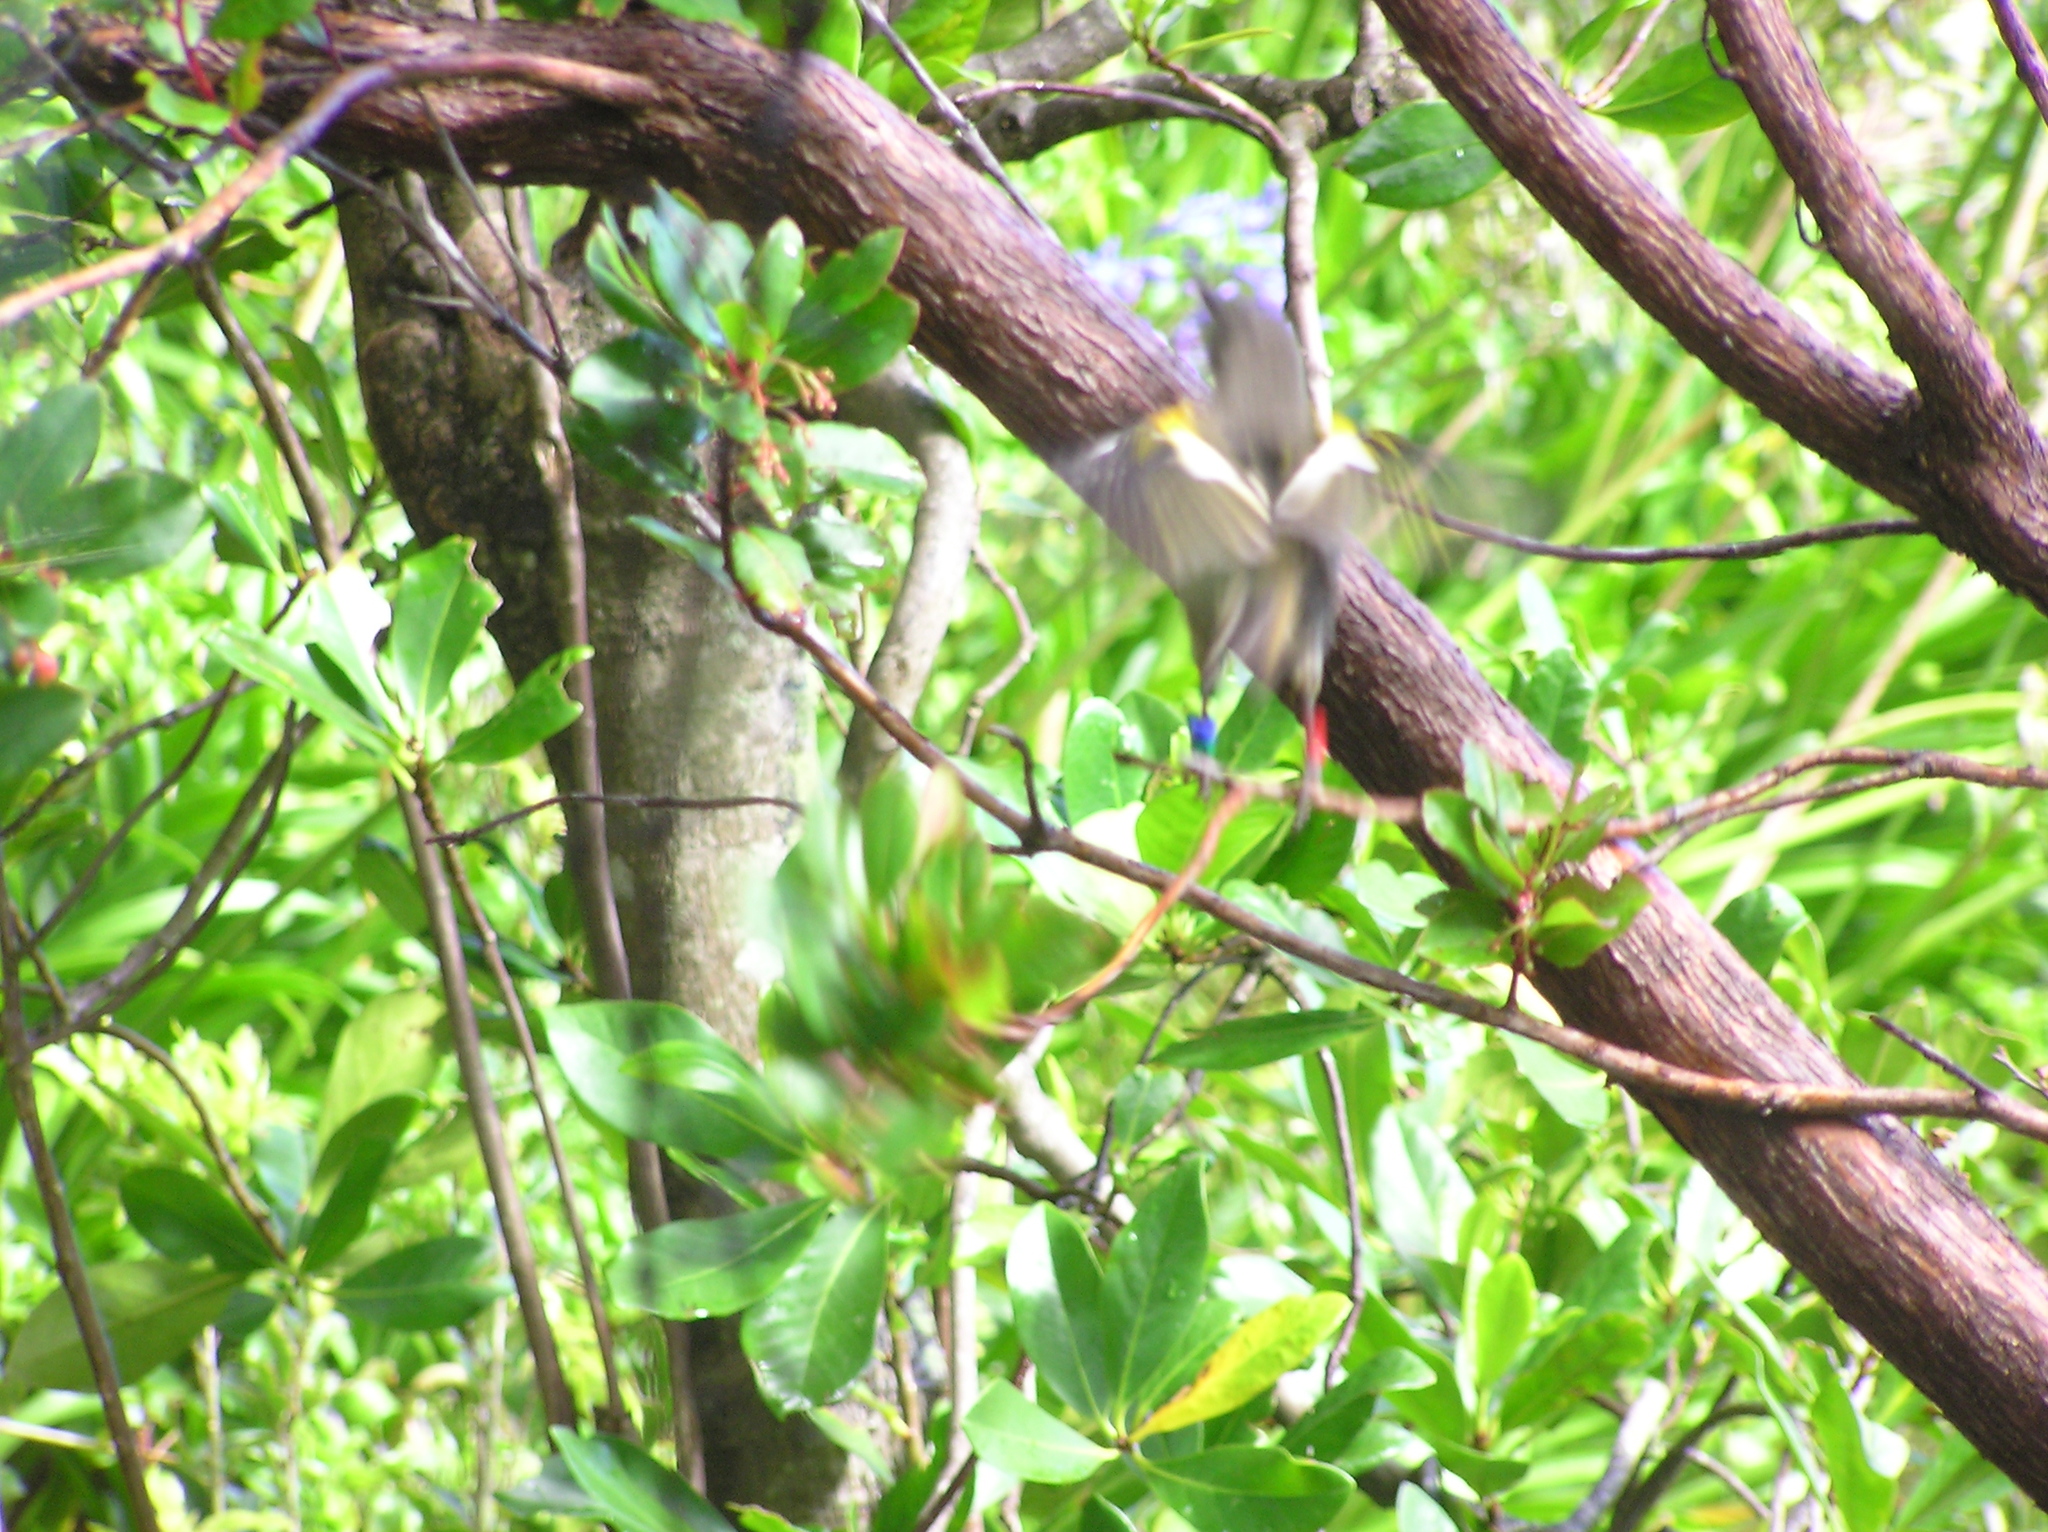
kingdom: Animalia
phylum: Chordata
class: Aves
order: Passeriformes
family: Notiomystidae
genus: Notiomystis
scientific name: Notiomystis cincta
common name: Stitchbird
